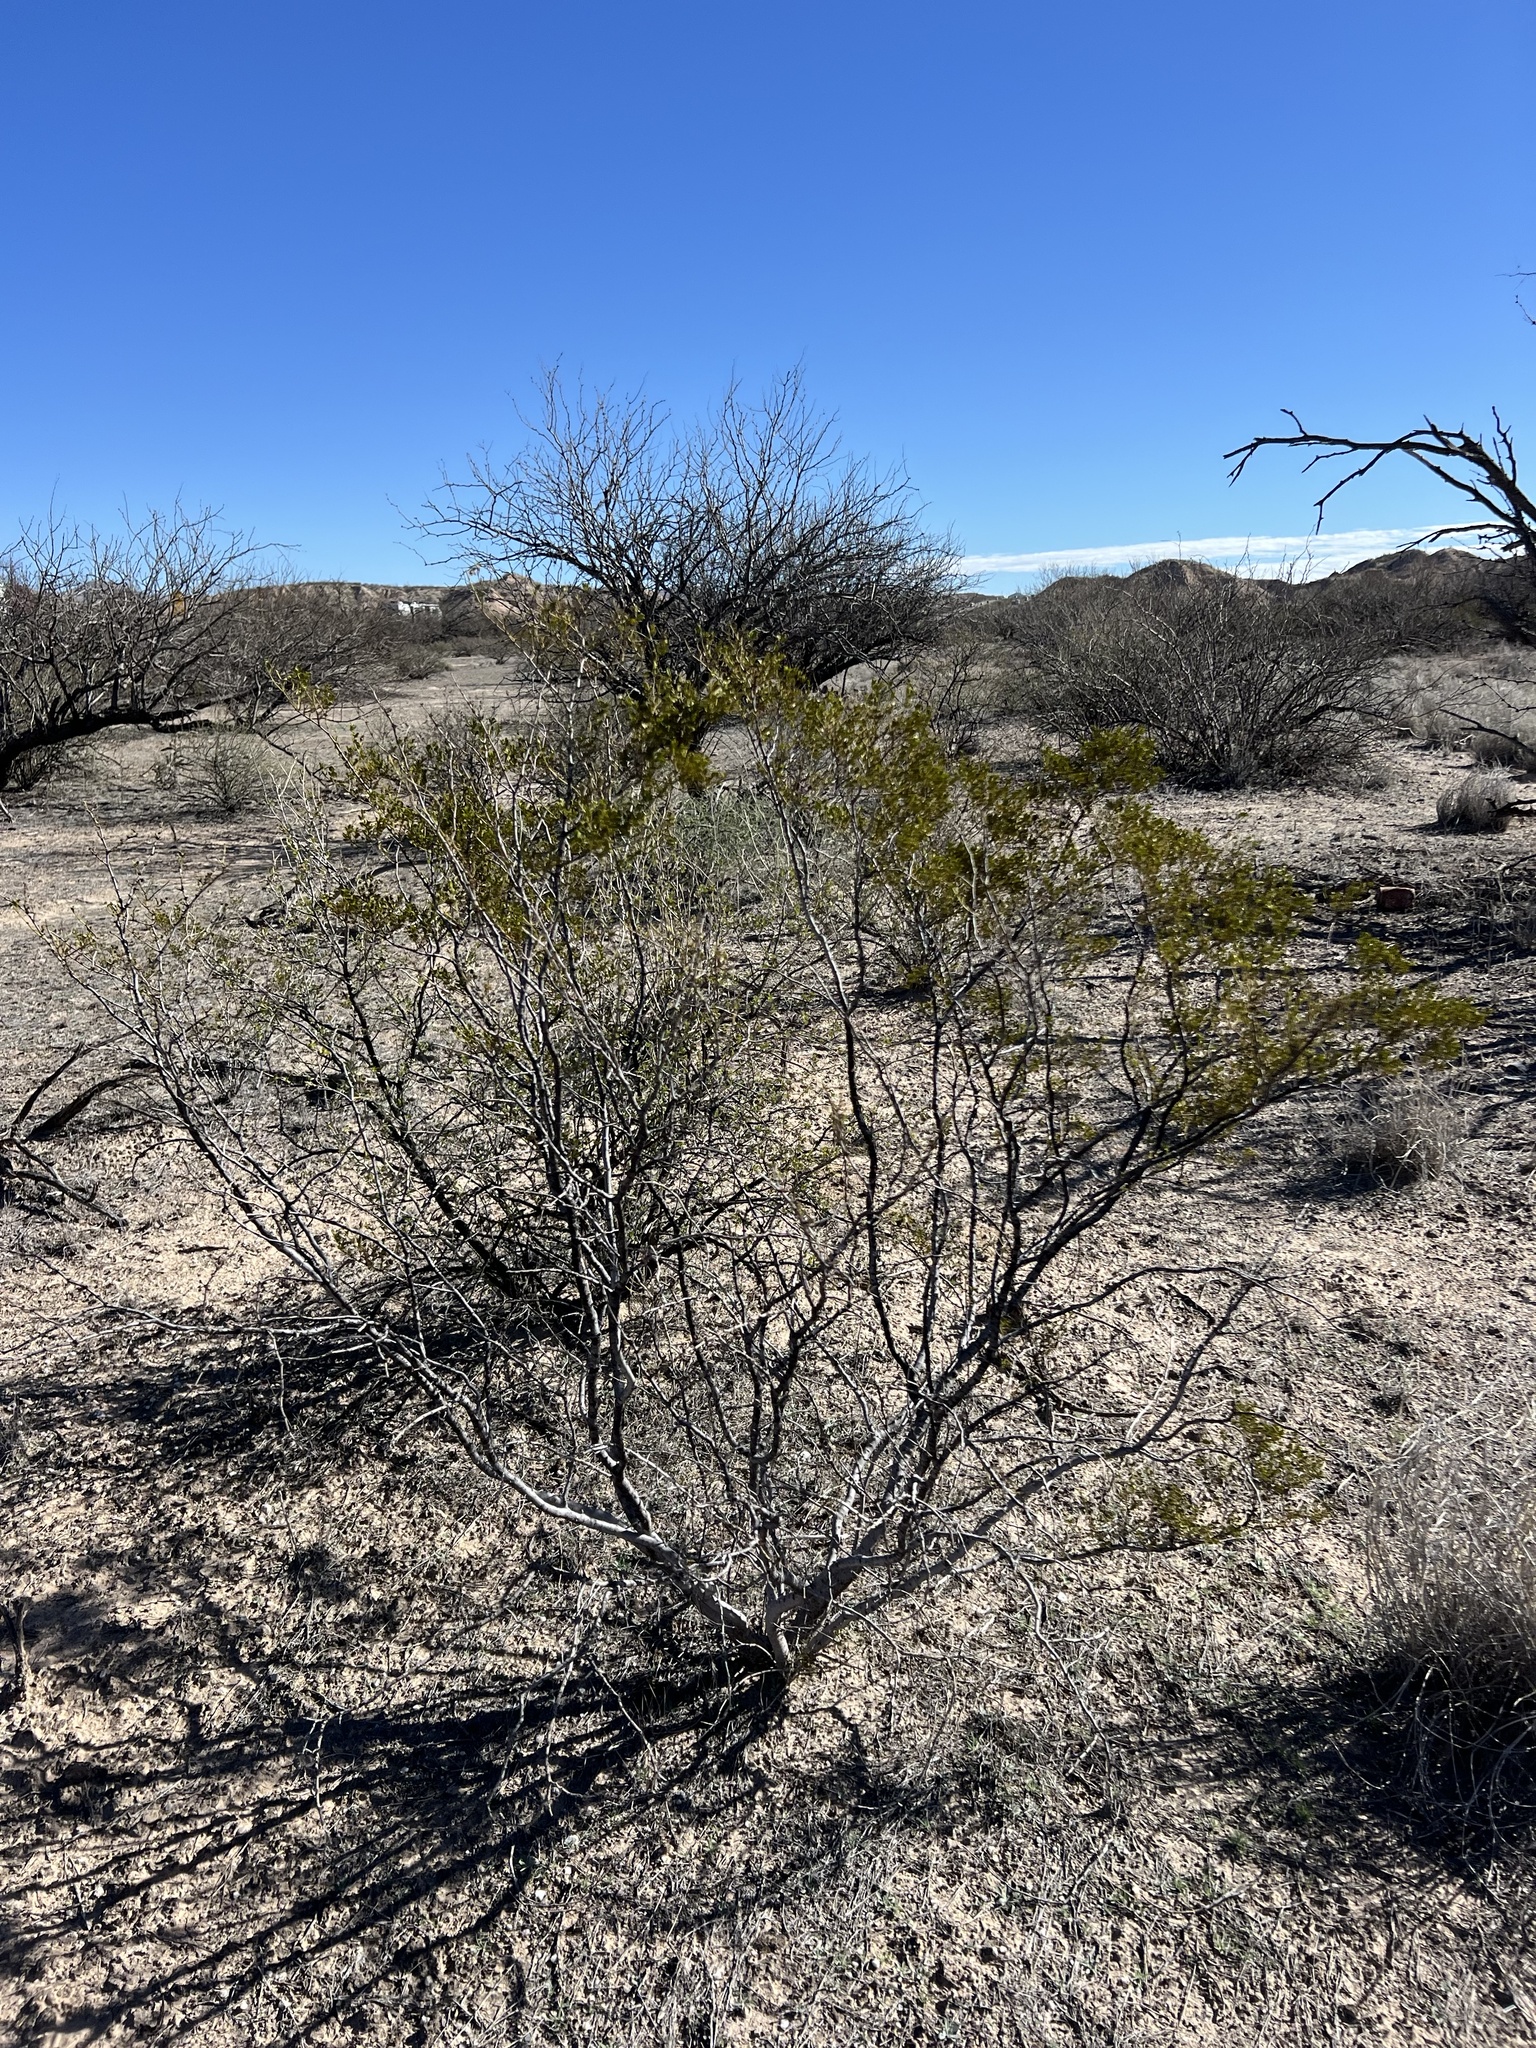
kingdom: Plantae
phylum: Tracheophyta
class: Magnoliopsida
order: Zygophyllales
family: Zygophyllaceae
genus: Larrea
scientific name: Larrea tridentata
